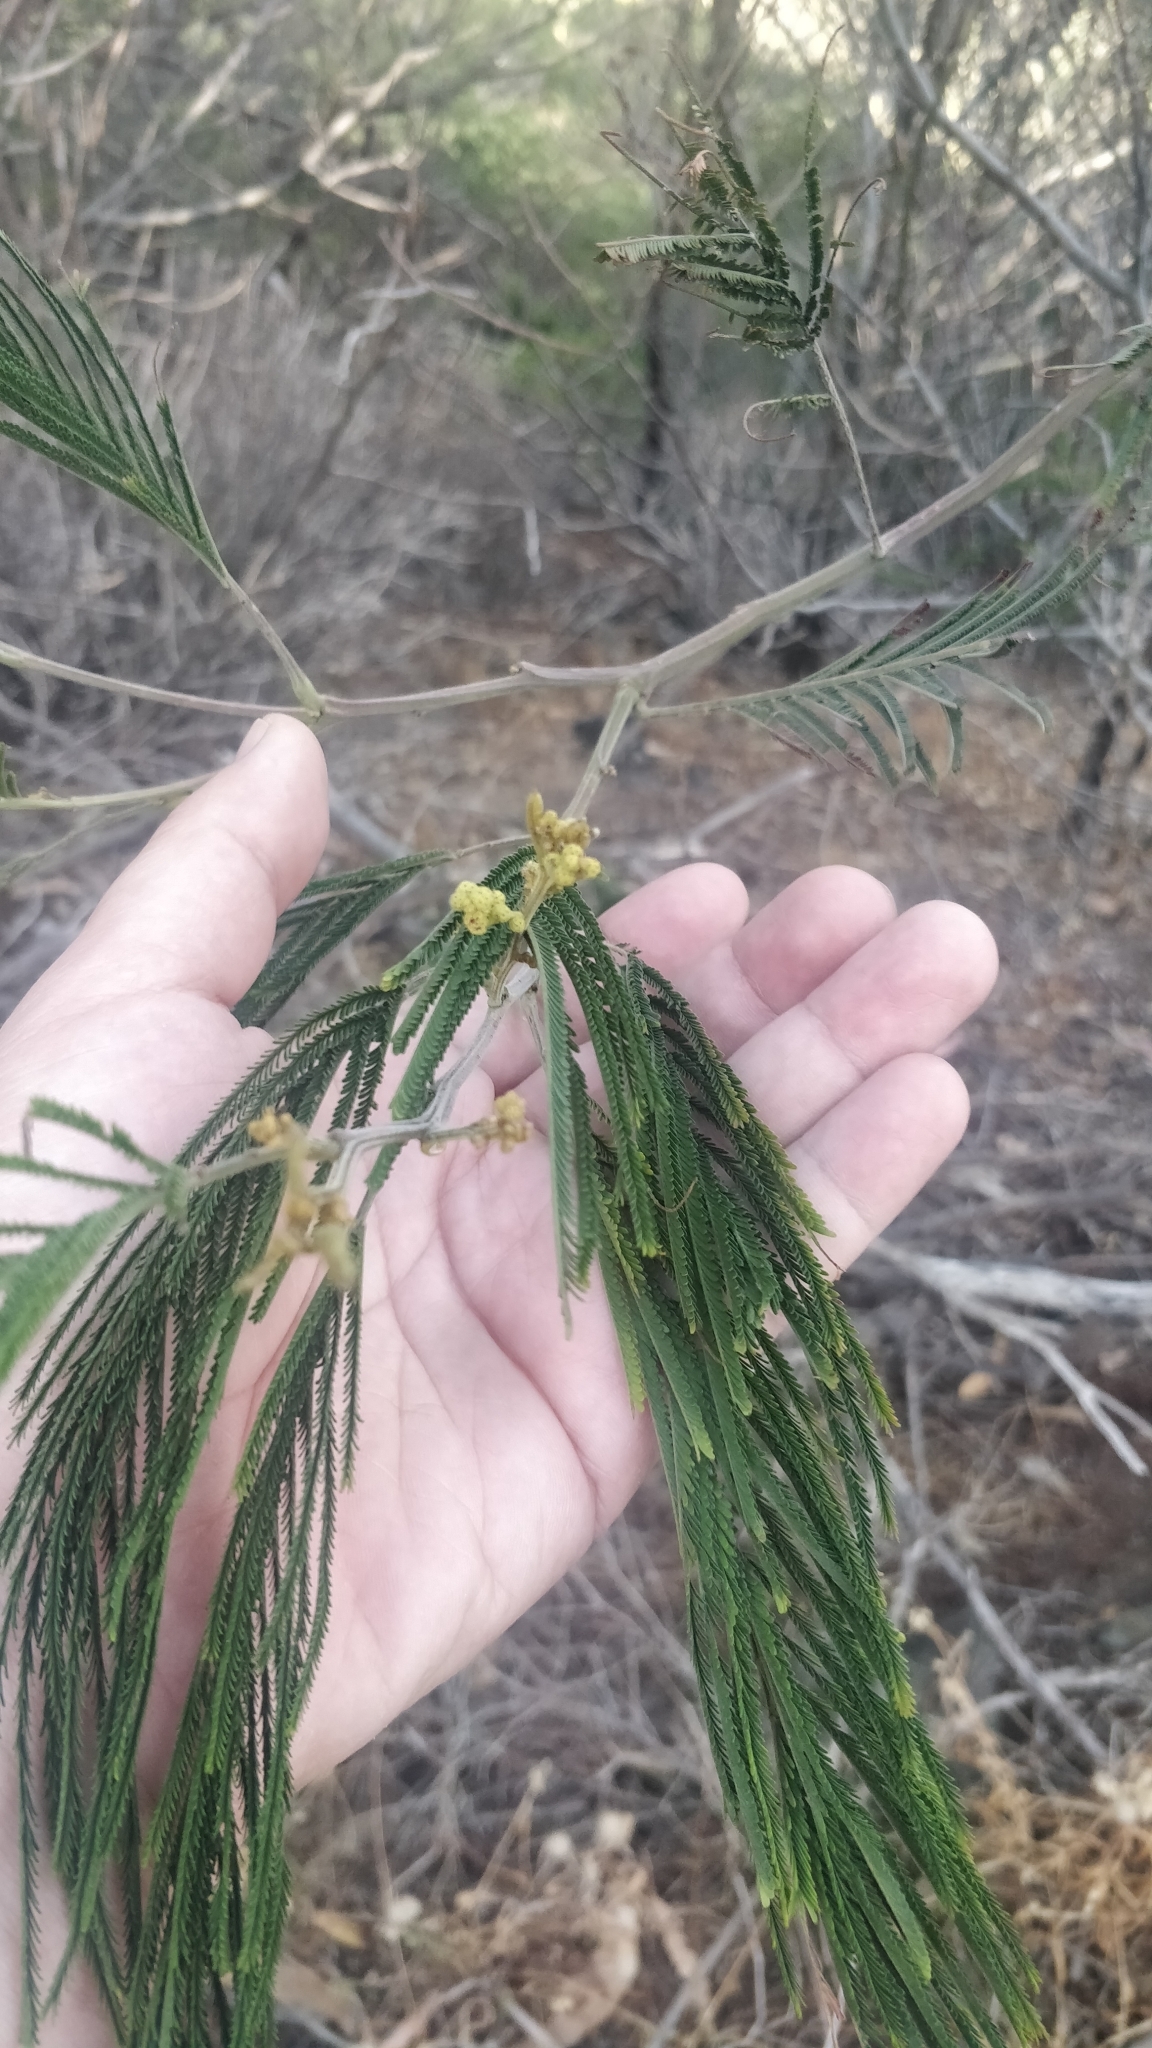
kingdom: Plantae
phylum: Tracheophyta
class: Magnoliopsida
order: Fabales
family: Fabaceae
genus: Acacia
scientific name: Acacia mearnsii
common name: Black wattle
